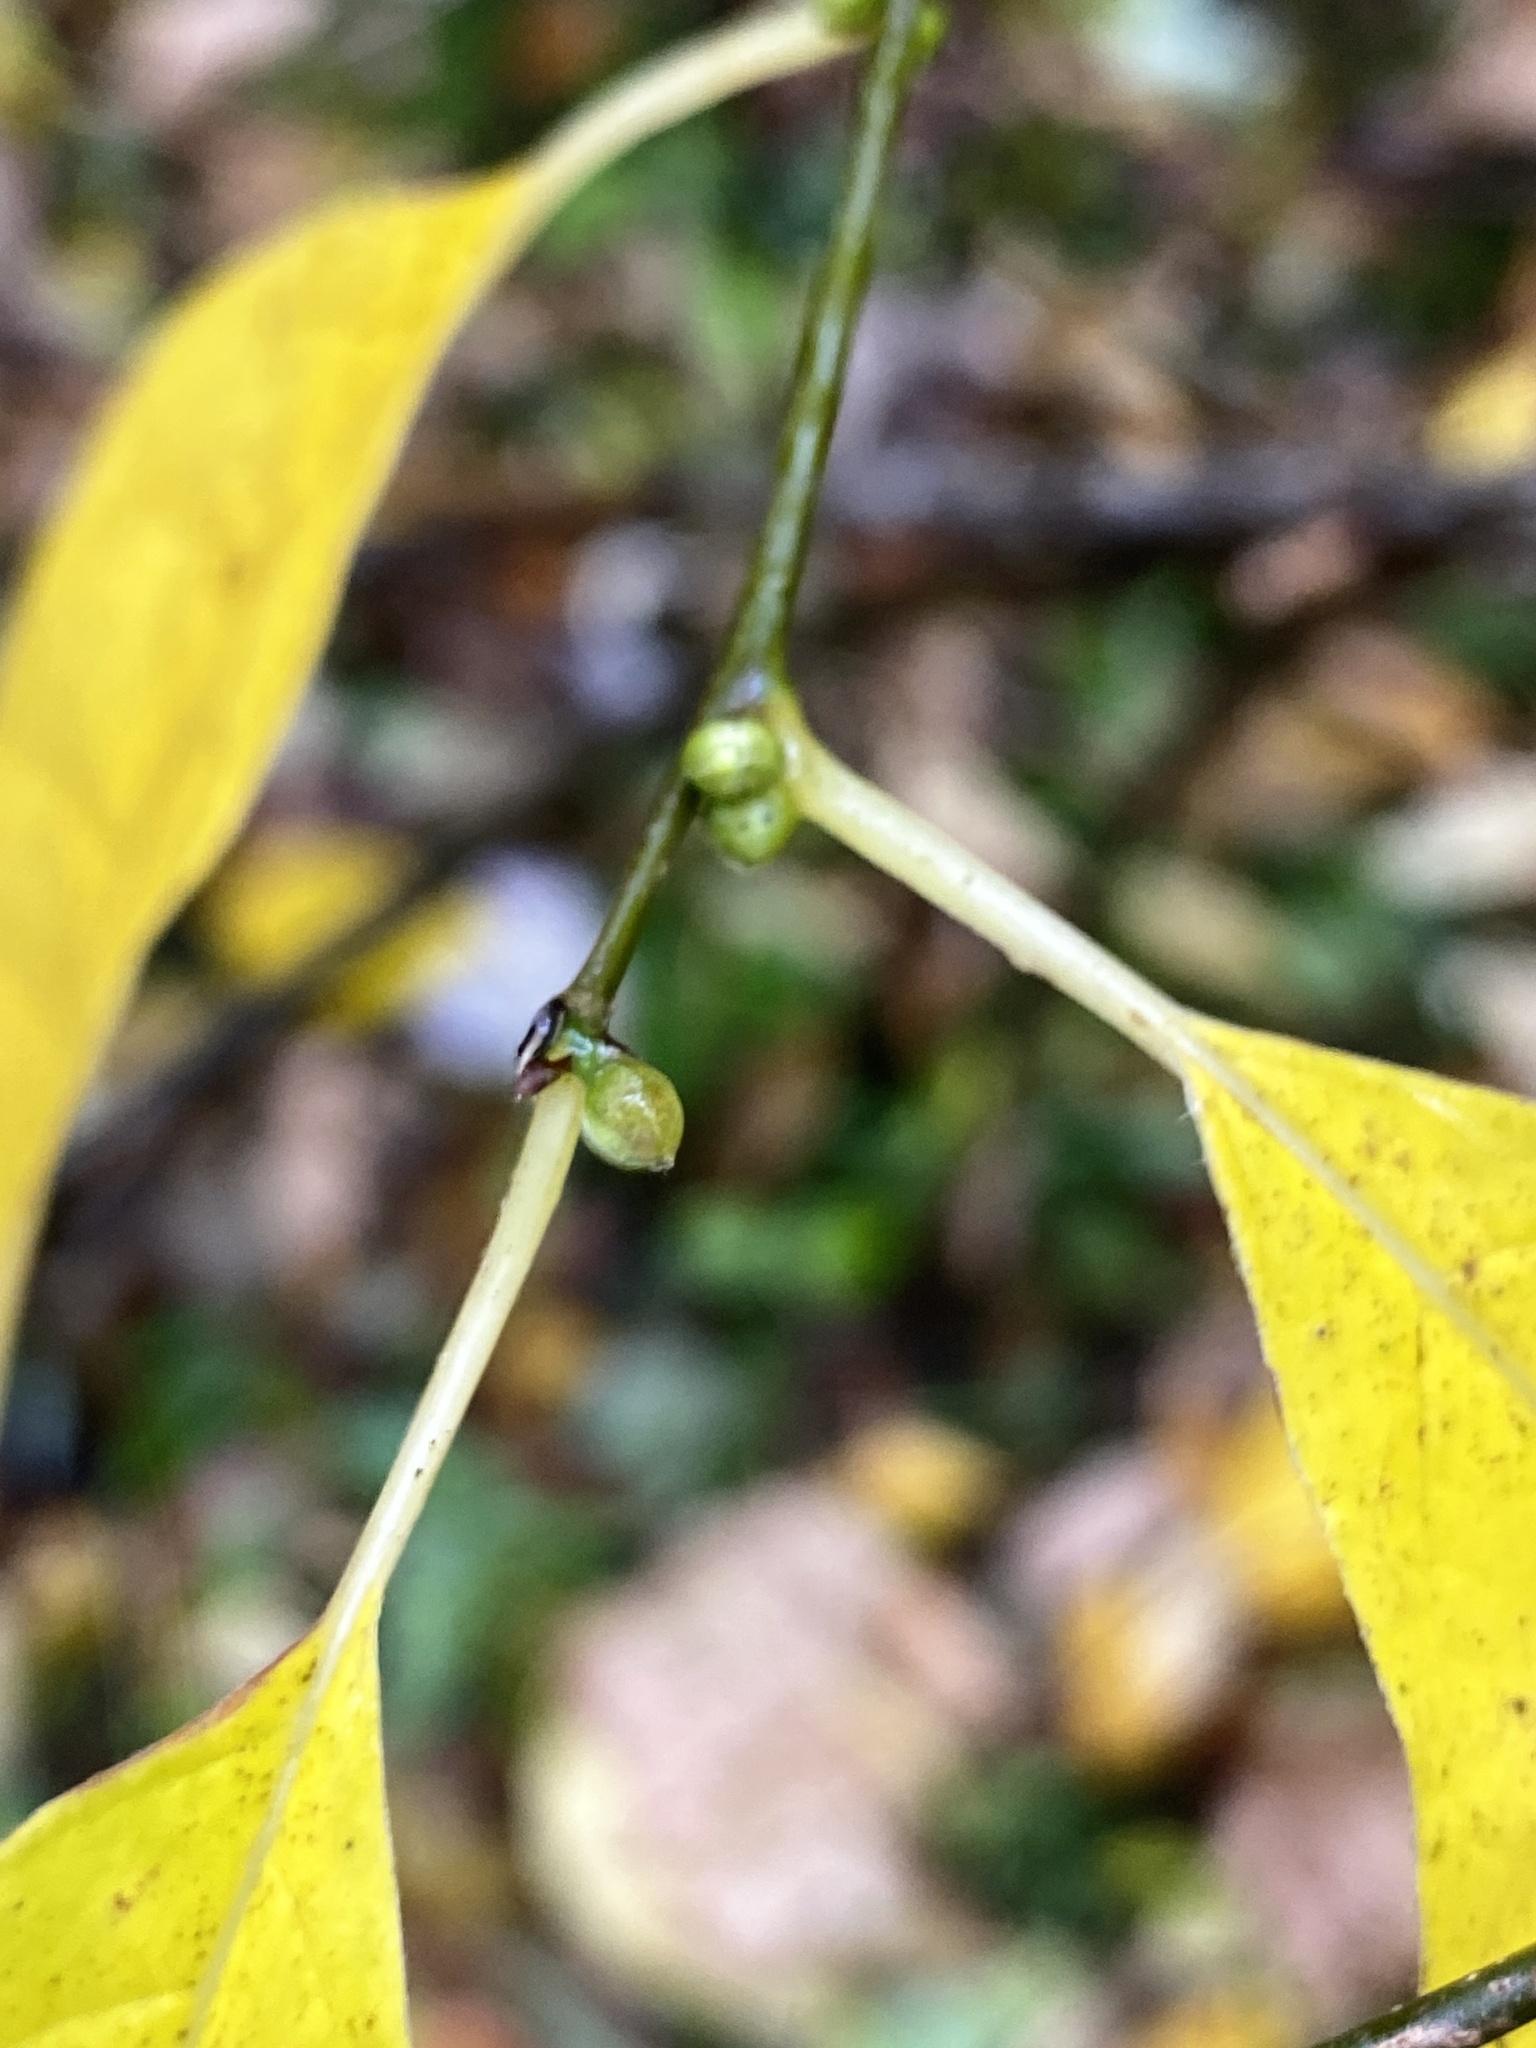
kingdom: Plantae
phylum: Tracheophyta
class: Magnoliopsida
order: Laurales
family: Lauraceae
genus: Lindera
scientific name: Lindera benzoin
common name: Spicebush
